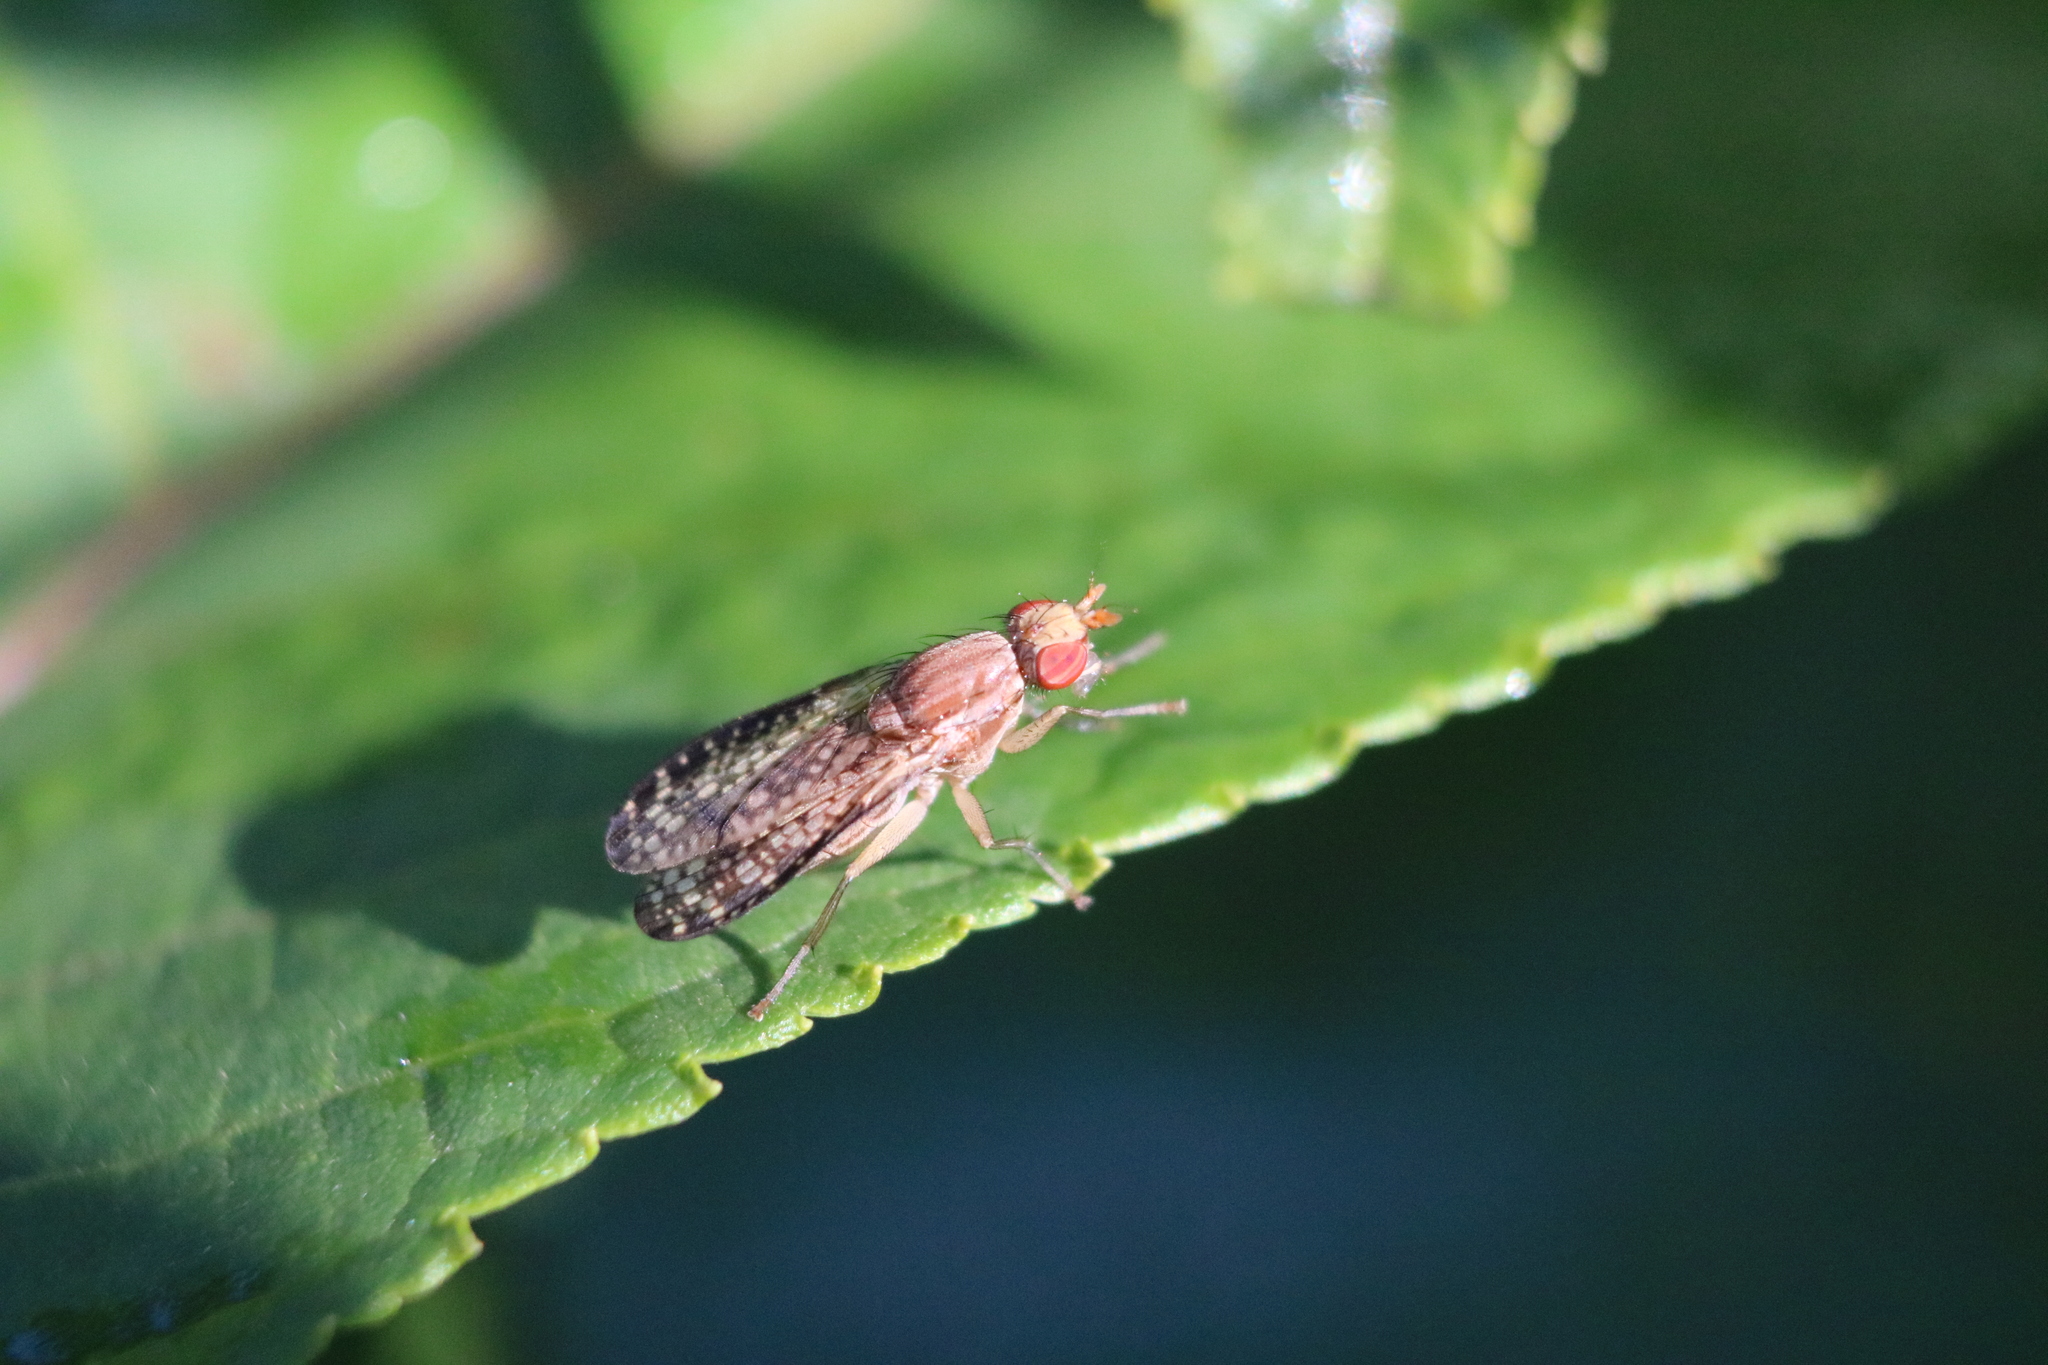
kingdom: Animalia
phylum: Arthropoda
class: Insecta
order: Diptera
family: Sciomyzidae
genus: Trypetoptera
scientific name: Trypetoptera canadensis
